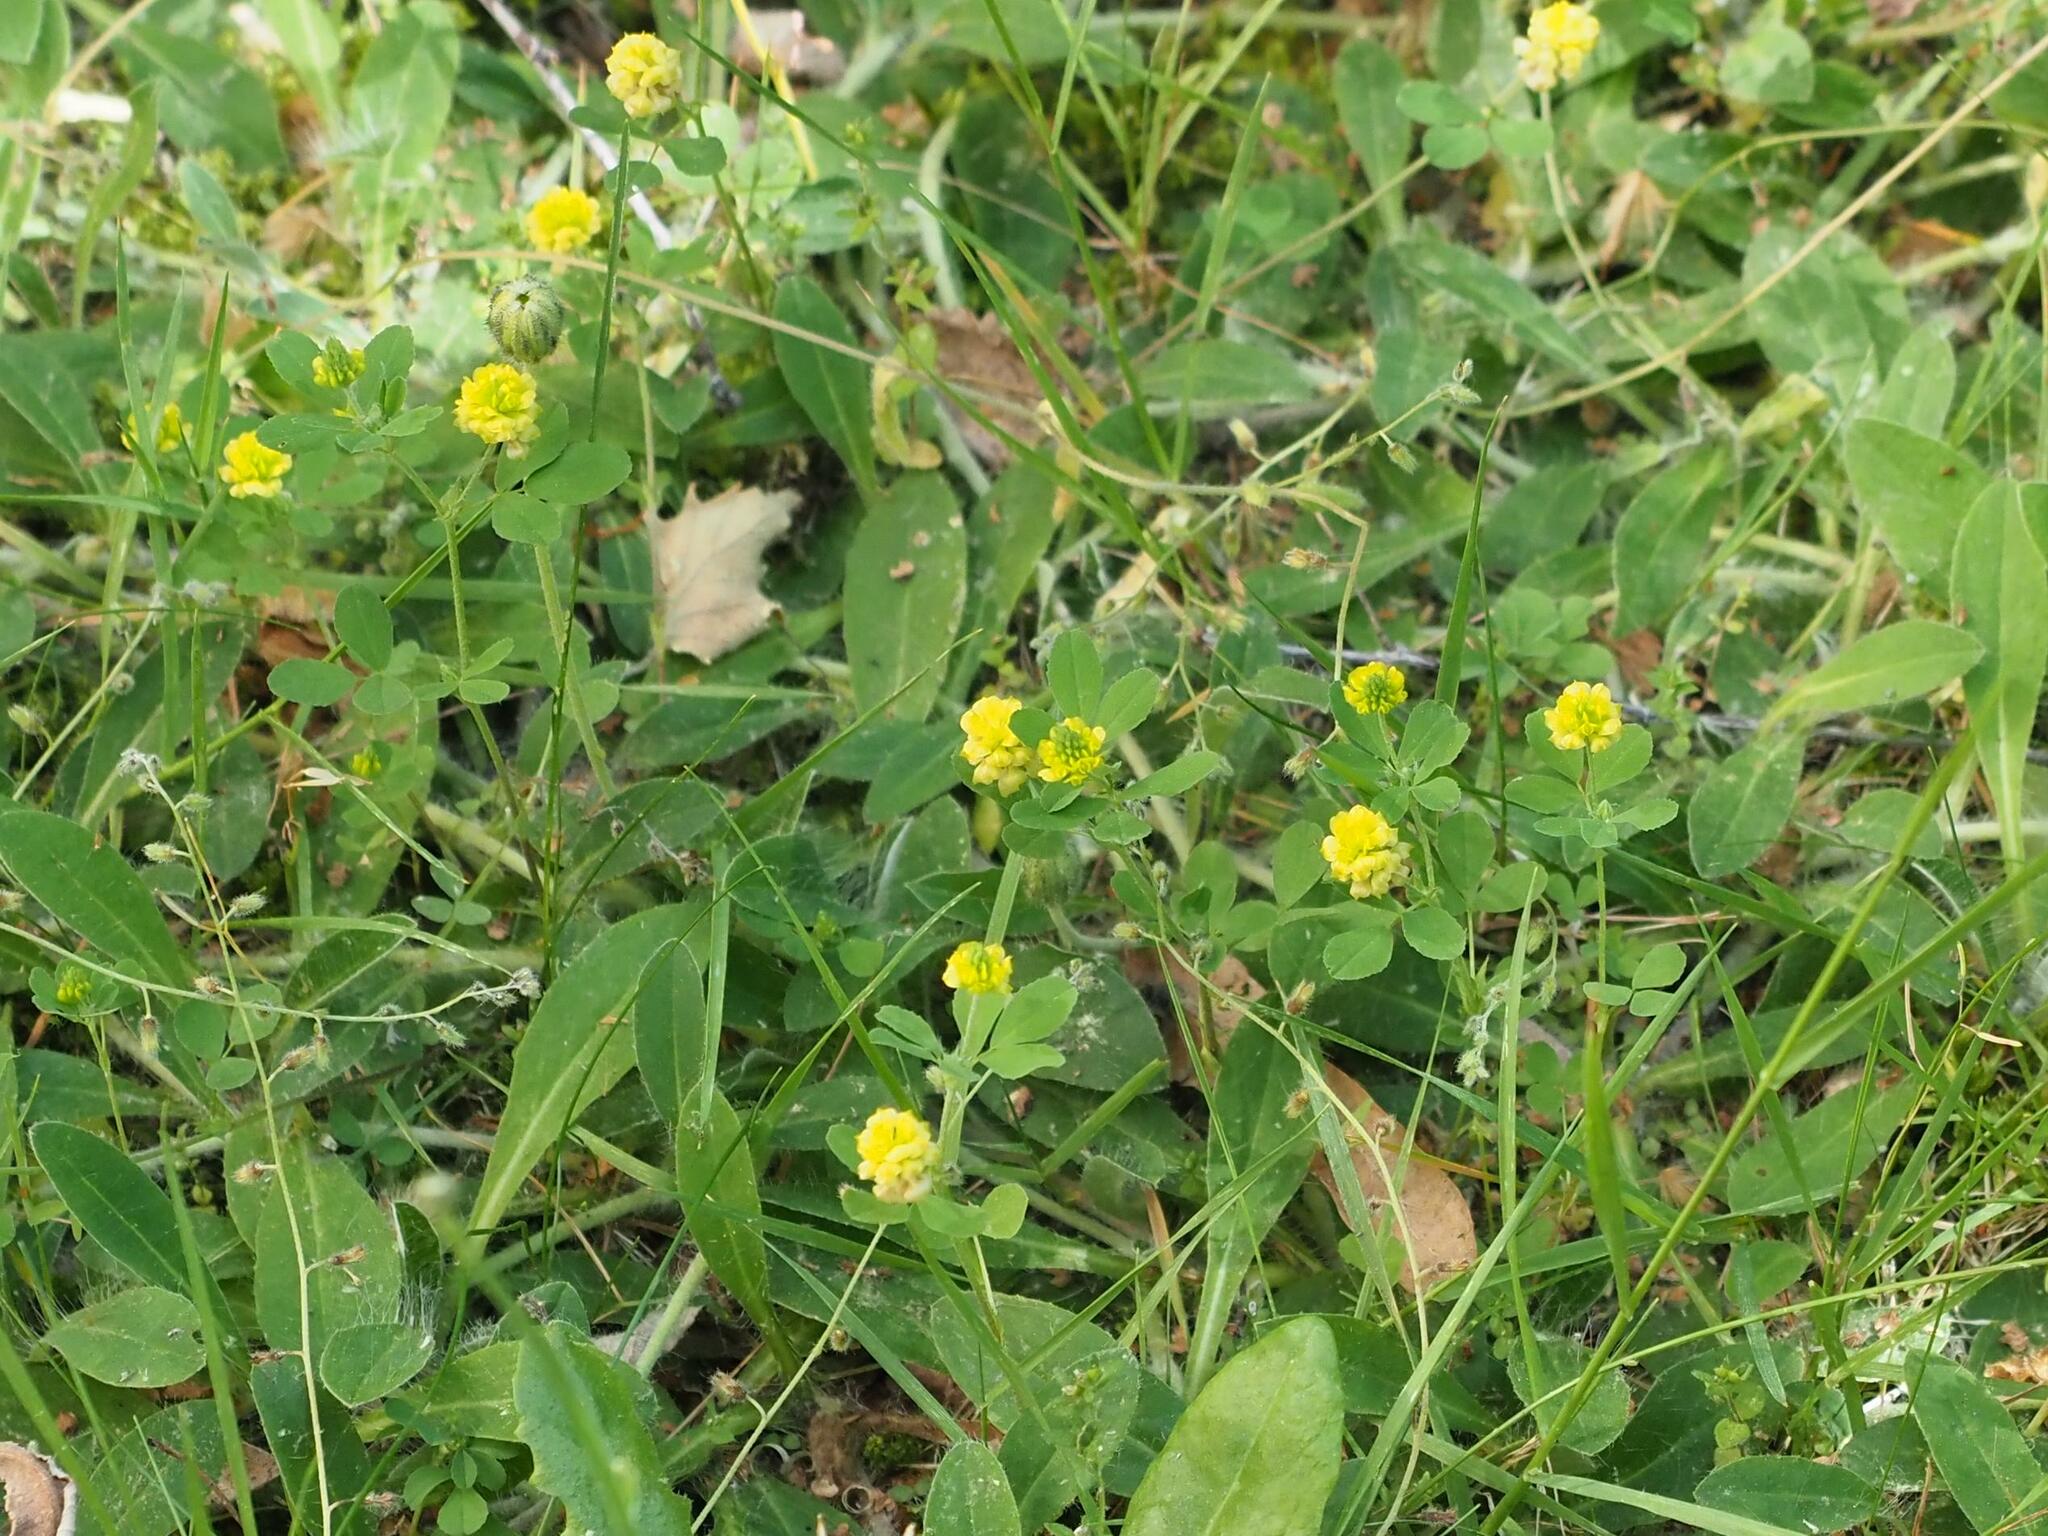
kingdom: Plantae
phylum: Tracheophyta
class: Magnoliopsida
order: Fabales
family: Fabaceae
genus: Trifolium
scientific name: Trifolium campestre
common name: Field clover
